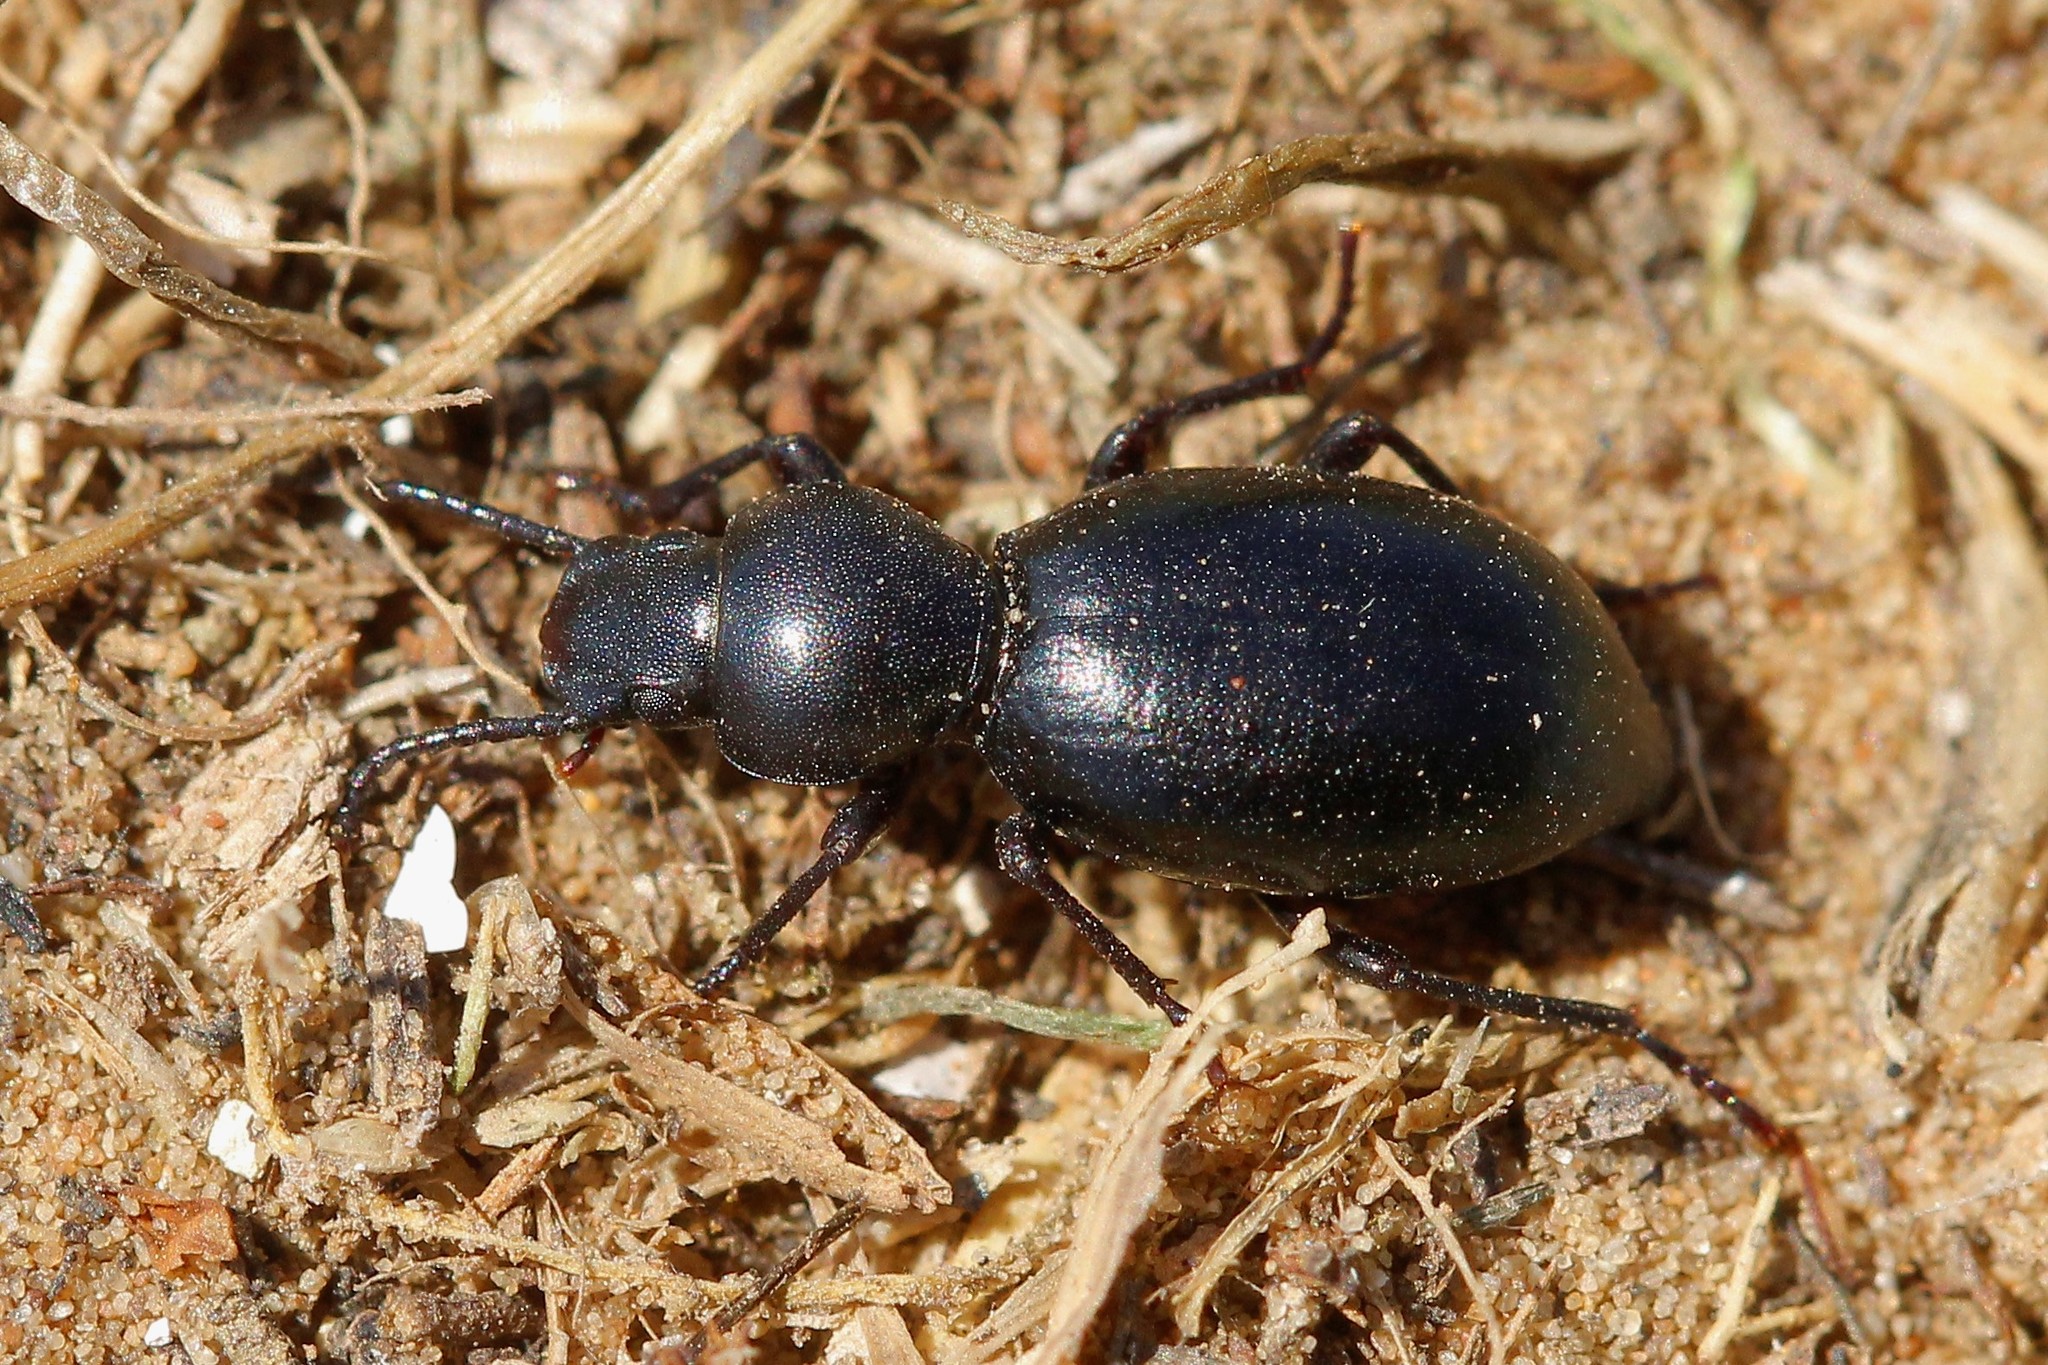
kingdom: Animalia
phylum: Arthropoda
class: Insecta
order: Coleoptera
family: Tenebrionidae
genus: Microdera
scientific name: Microdera convexa
